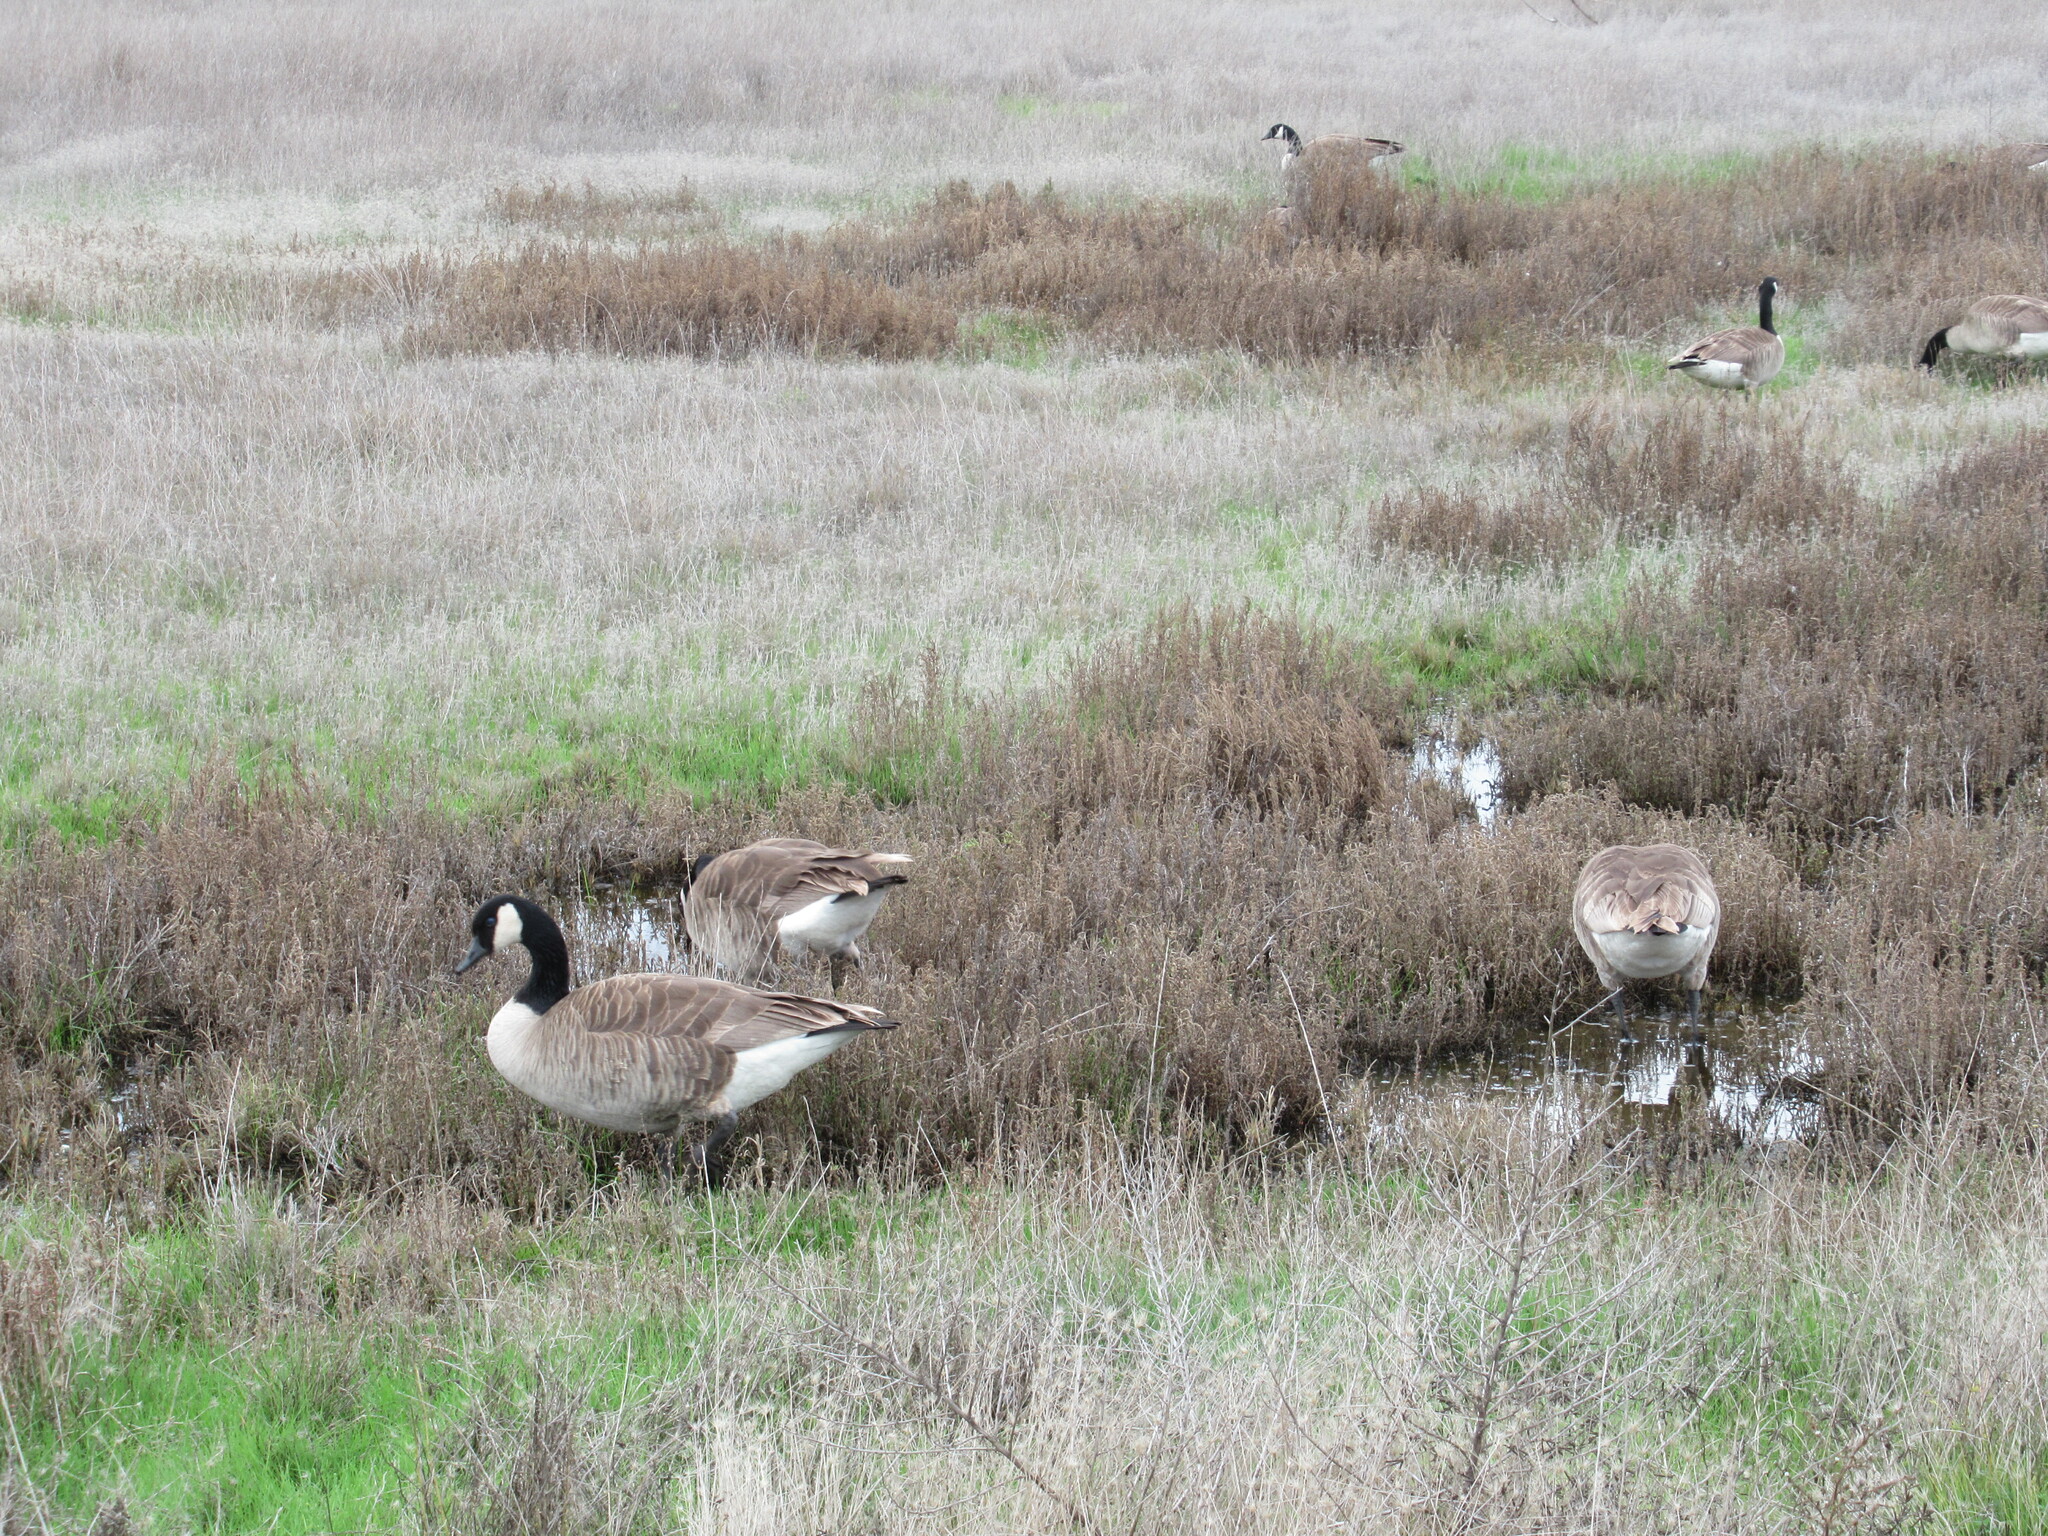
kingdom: Animalia
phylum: Chordata
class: Aves
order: Anseriformes
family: Anatidae
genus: Branta
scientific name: Branta canadensis
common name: Canada goose
